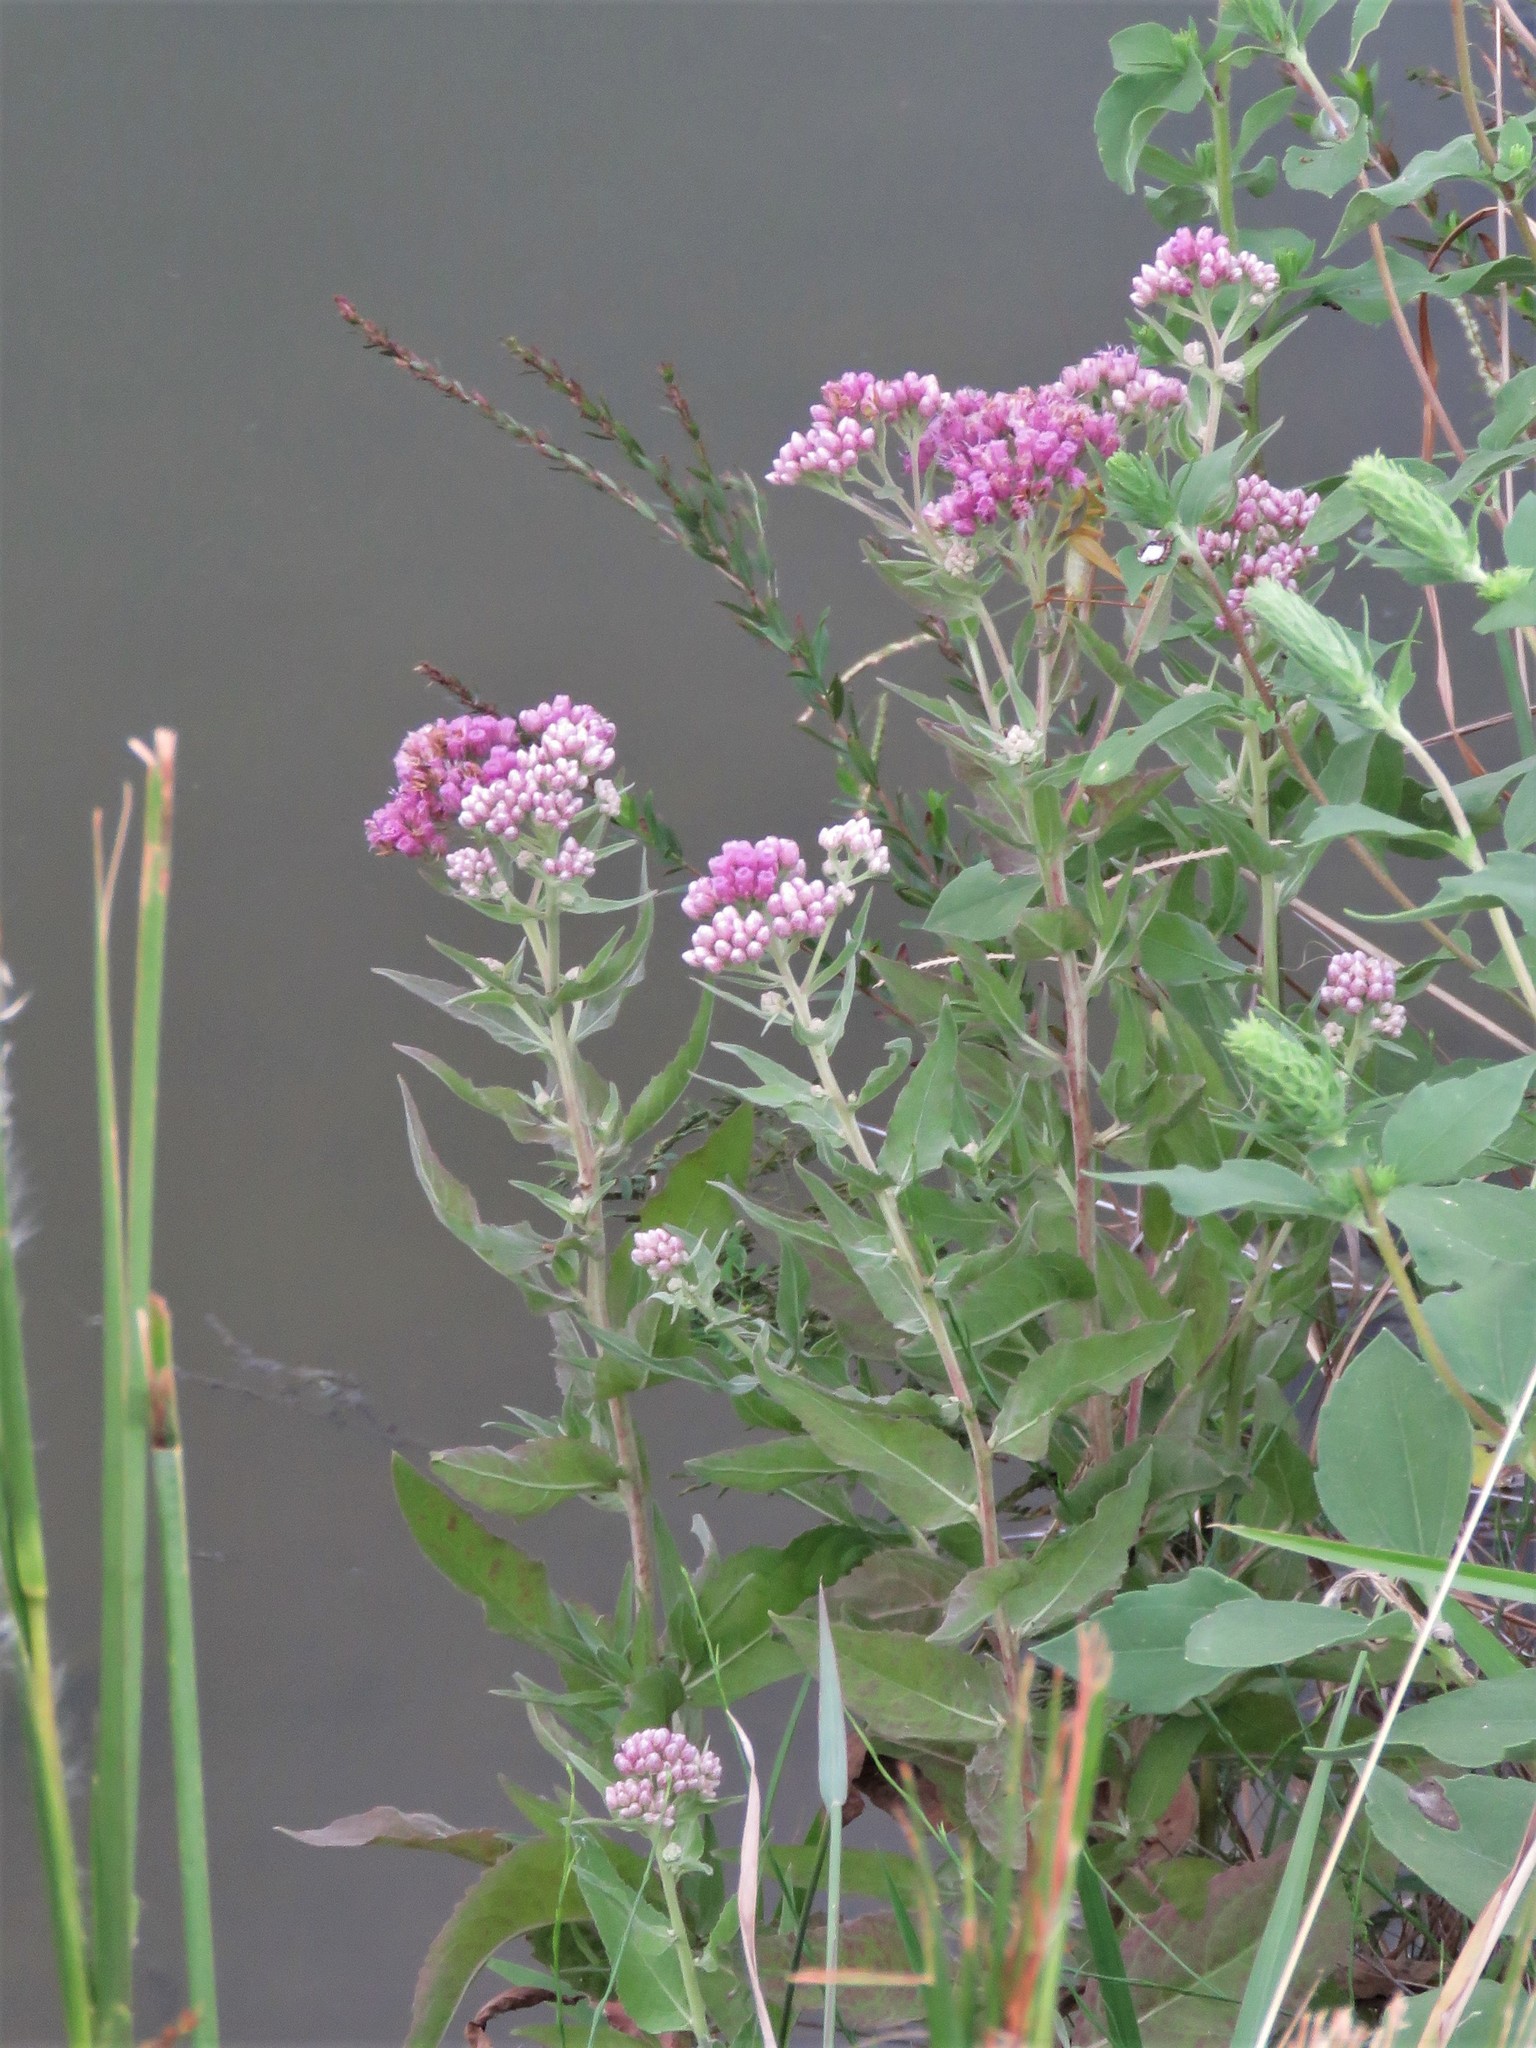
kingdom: Plantae
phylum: Tracheophyta
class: Magnoliopsida
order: Asterales
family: Asteraceae
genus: Pluchea
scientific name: Pluchea odorata
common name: Saltmarsh fleabane
